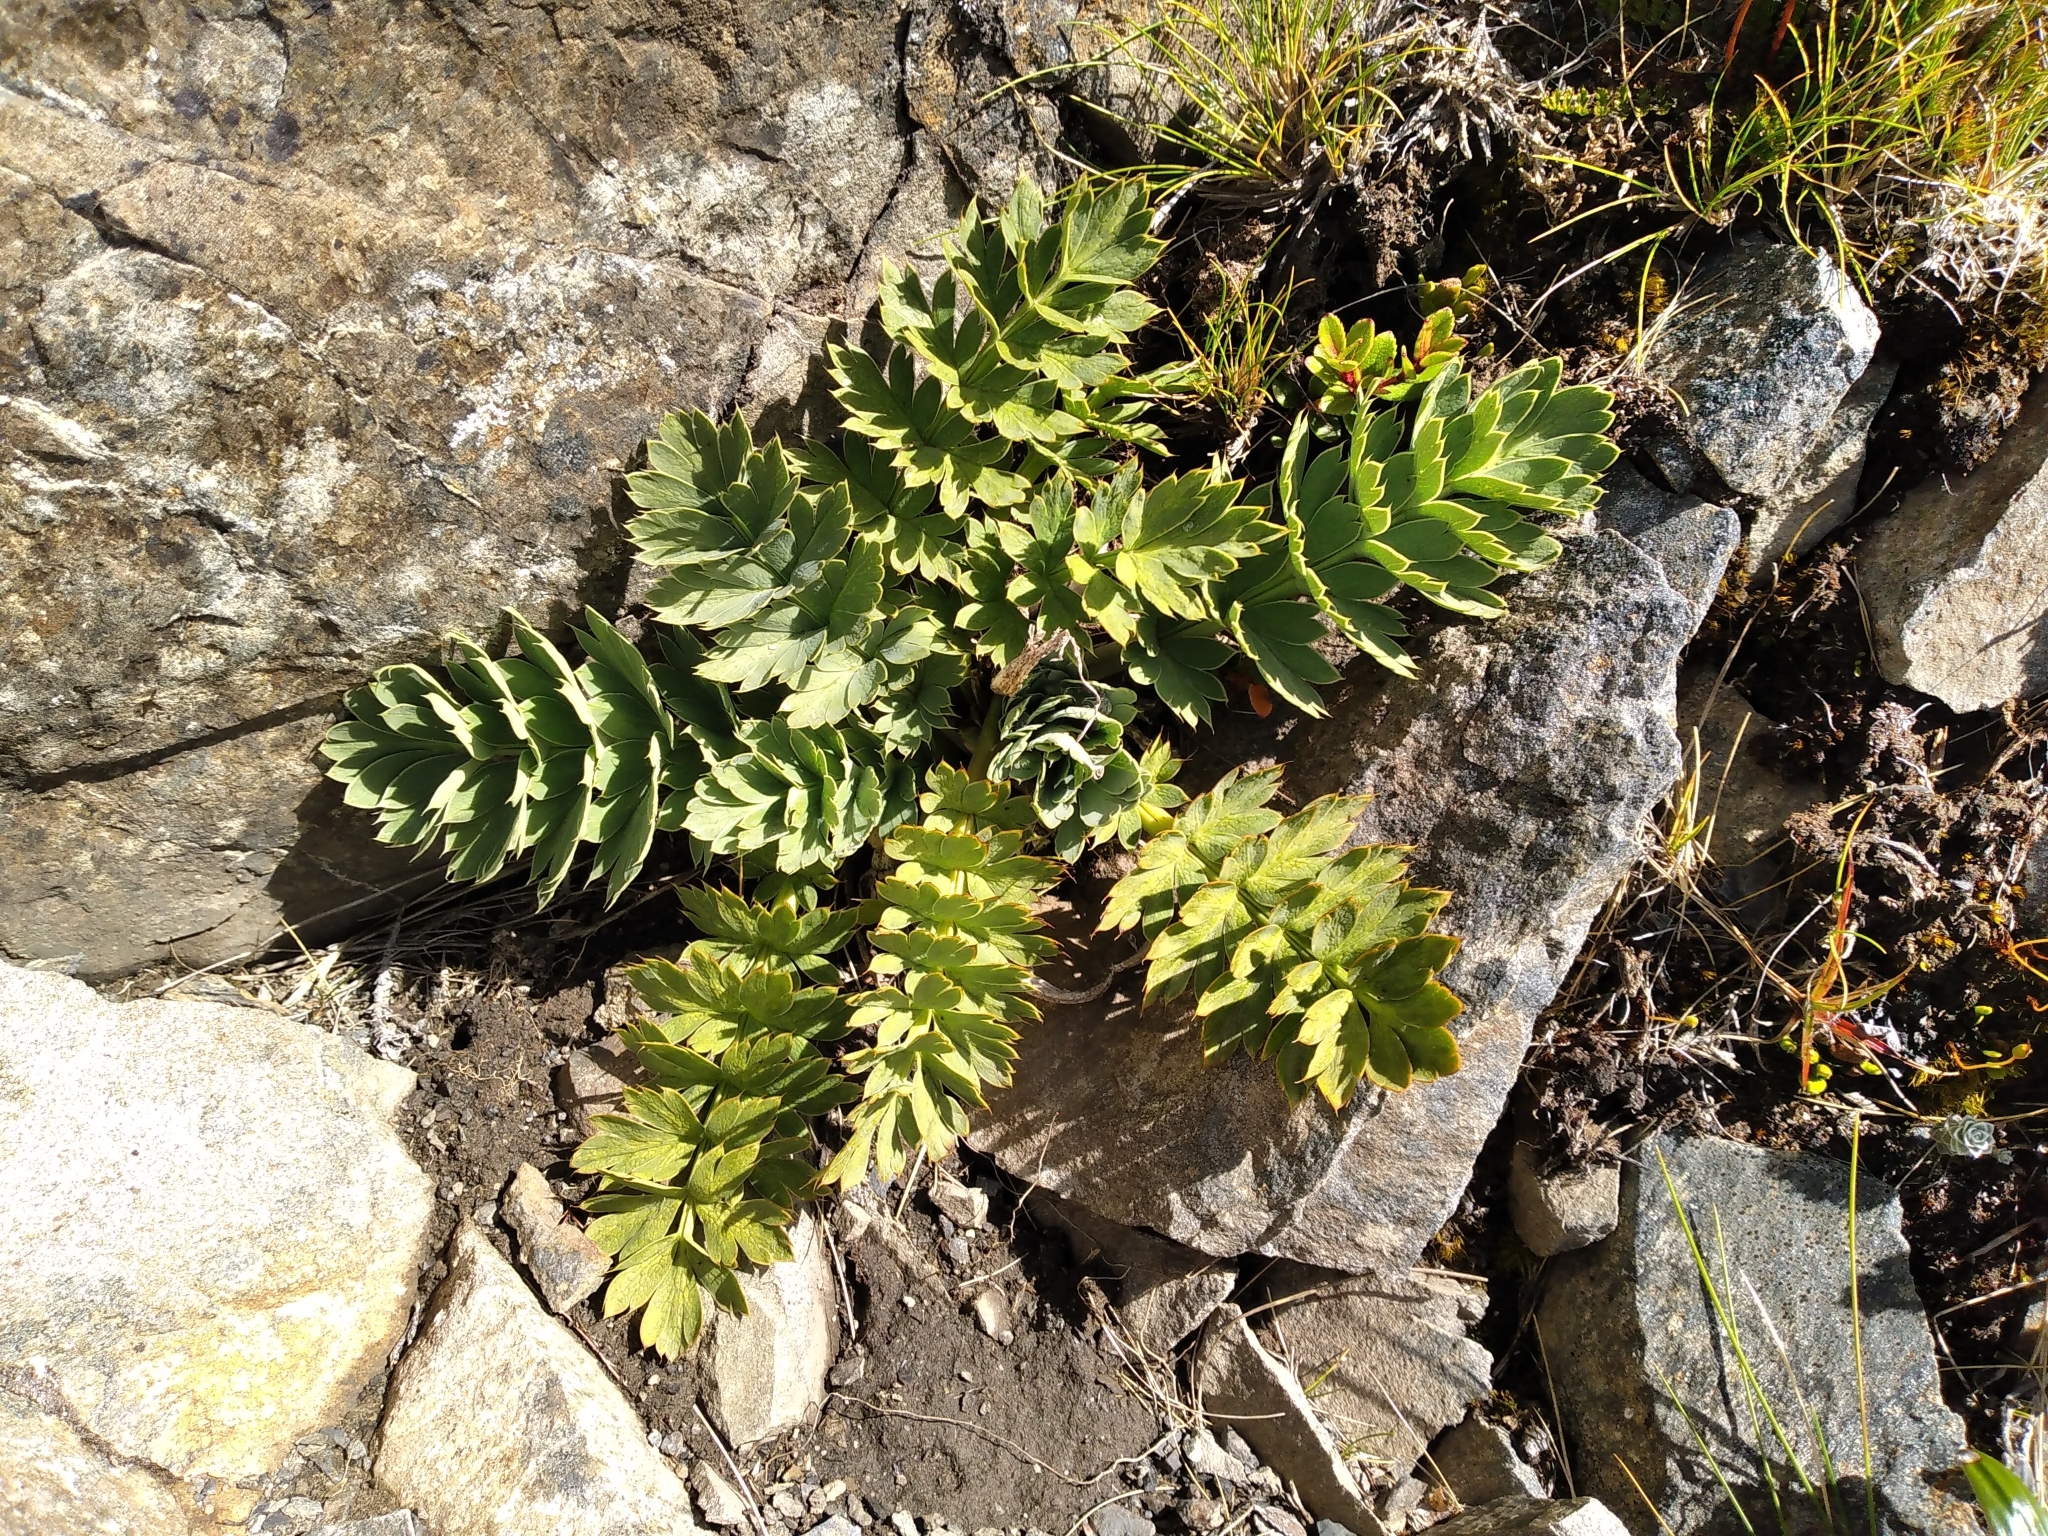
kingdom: Plantae
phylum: Tracheophyta
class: Magnoliopsida
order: Apiales
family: Apiaceae
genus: Anisotome
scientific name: Anisotome pilifera
